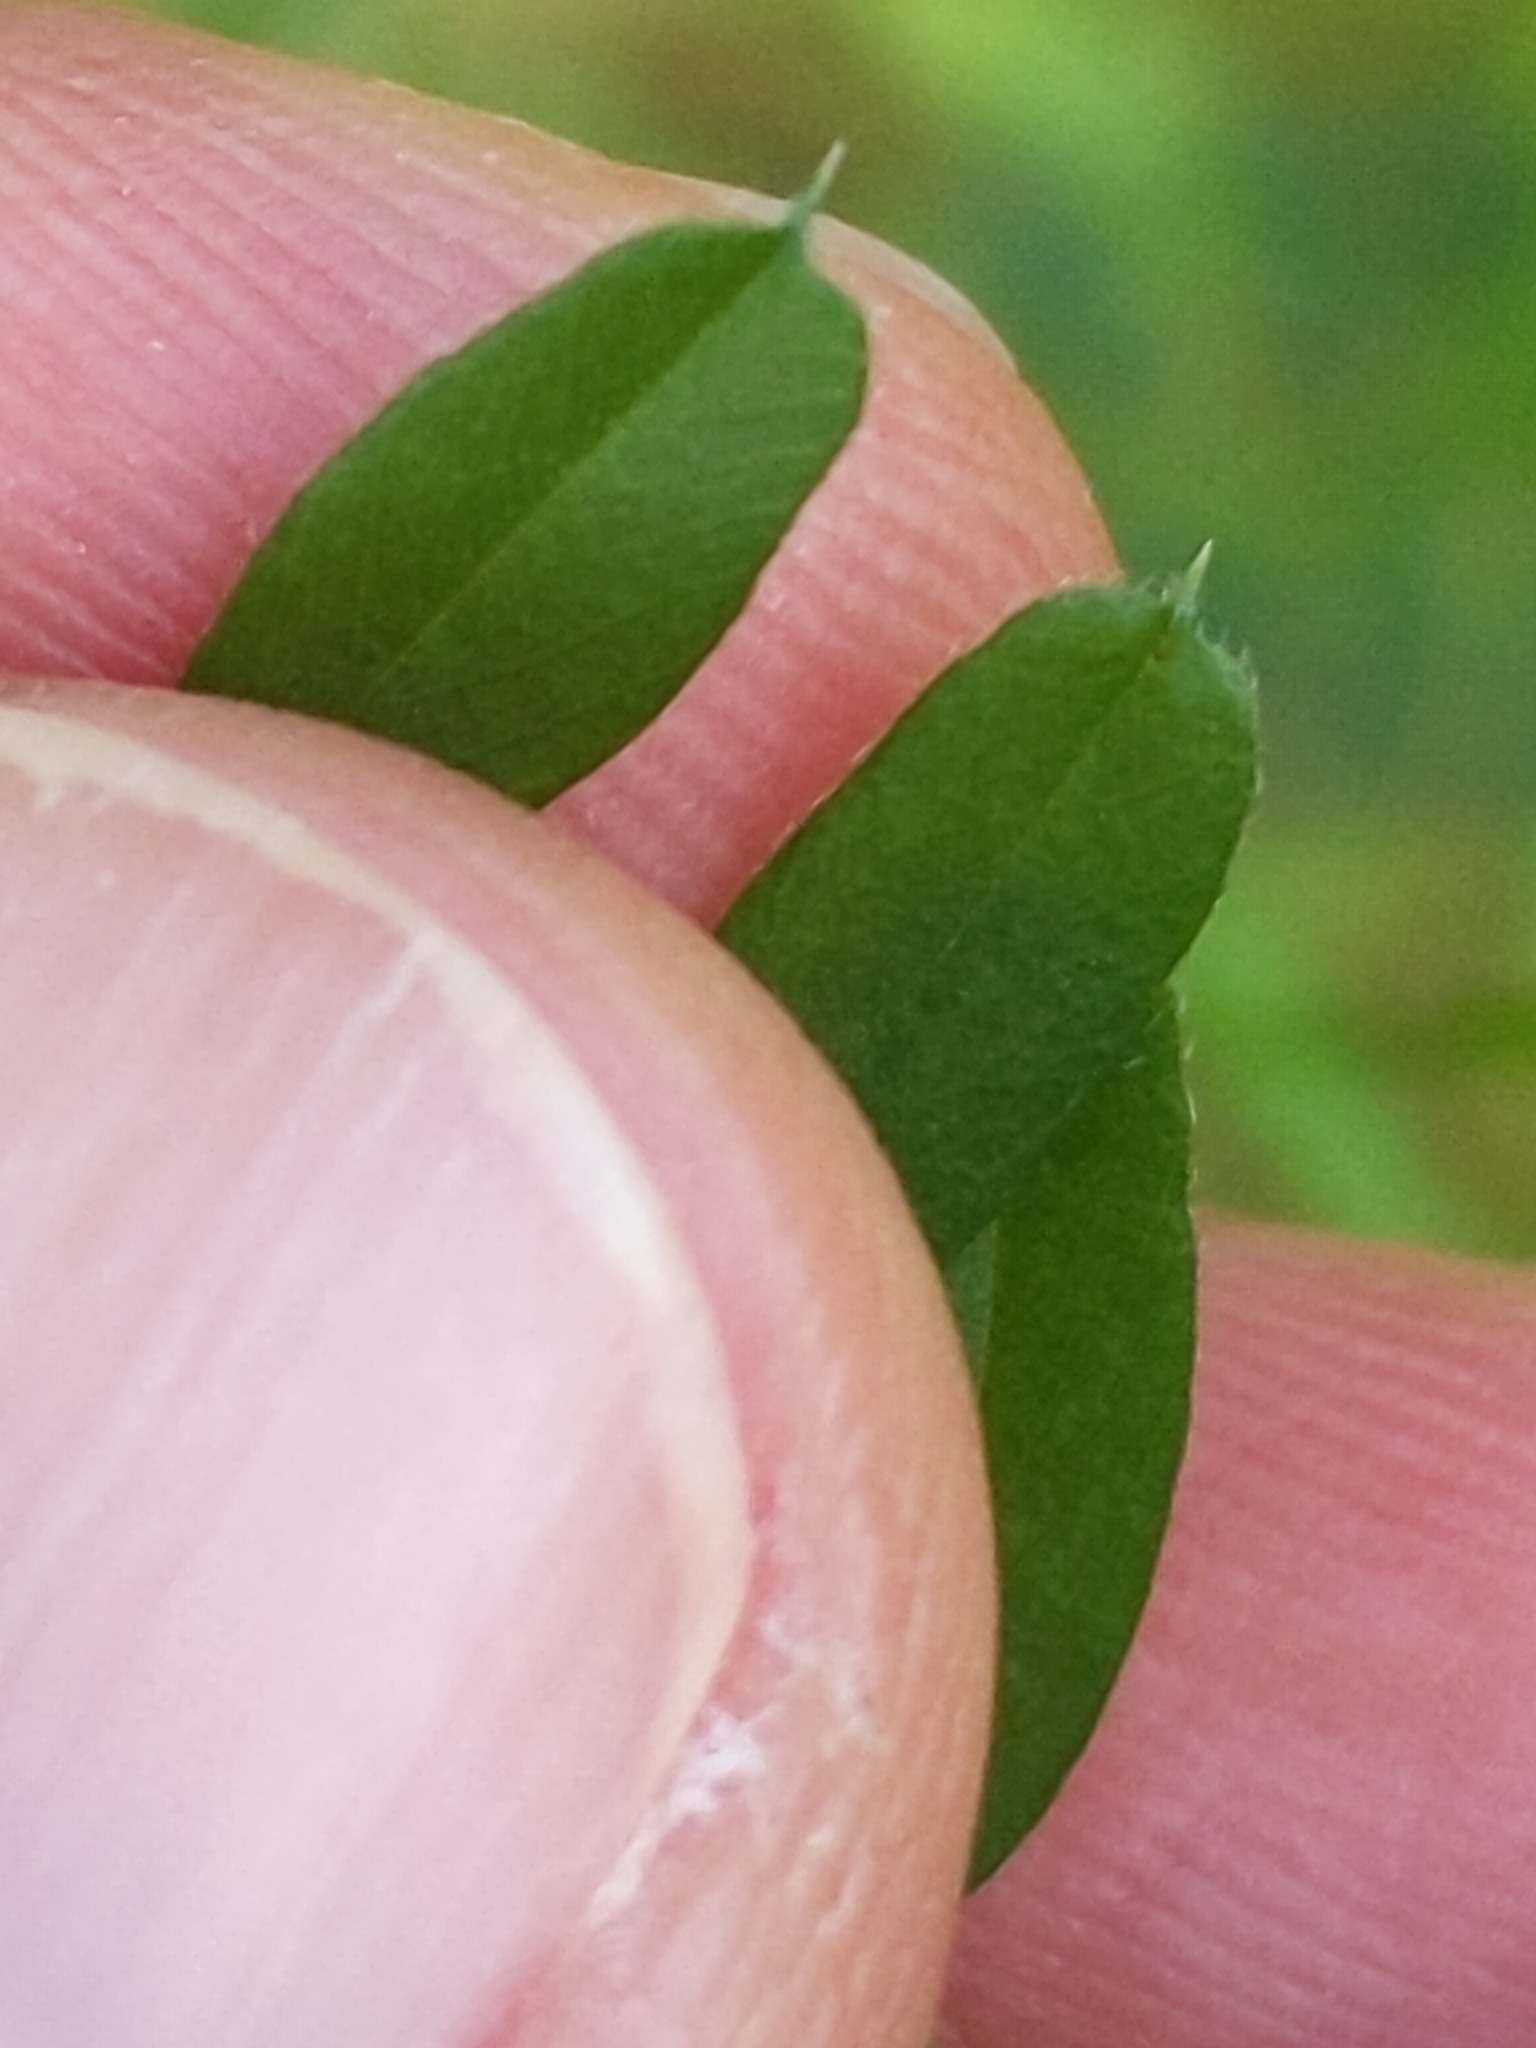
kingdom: Plantae
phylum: Tracheophyta
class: Magnoliopsida
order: Fabales
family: Fabaceae
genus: Vicia
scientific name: Vicia sativa
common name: Garden vetch
